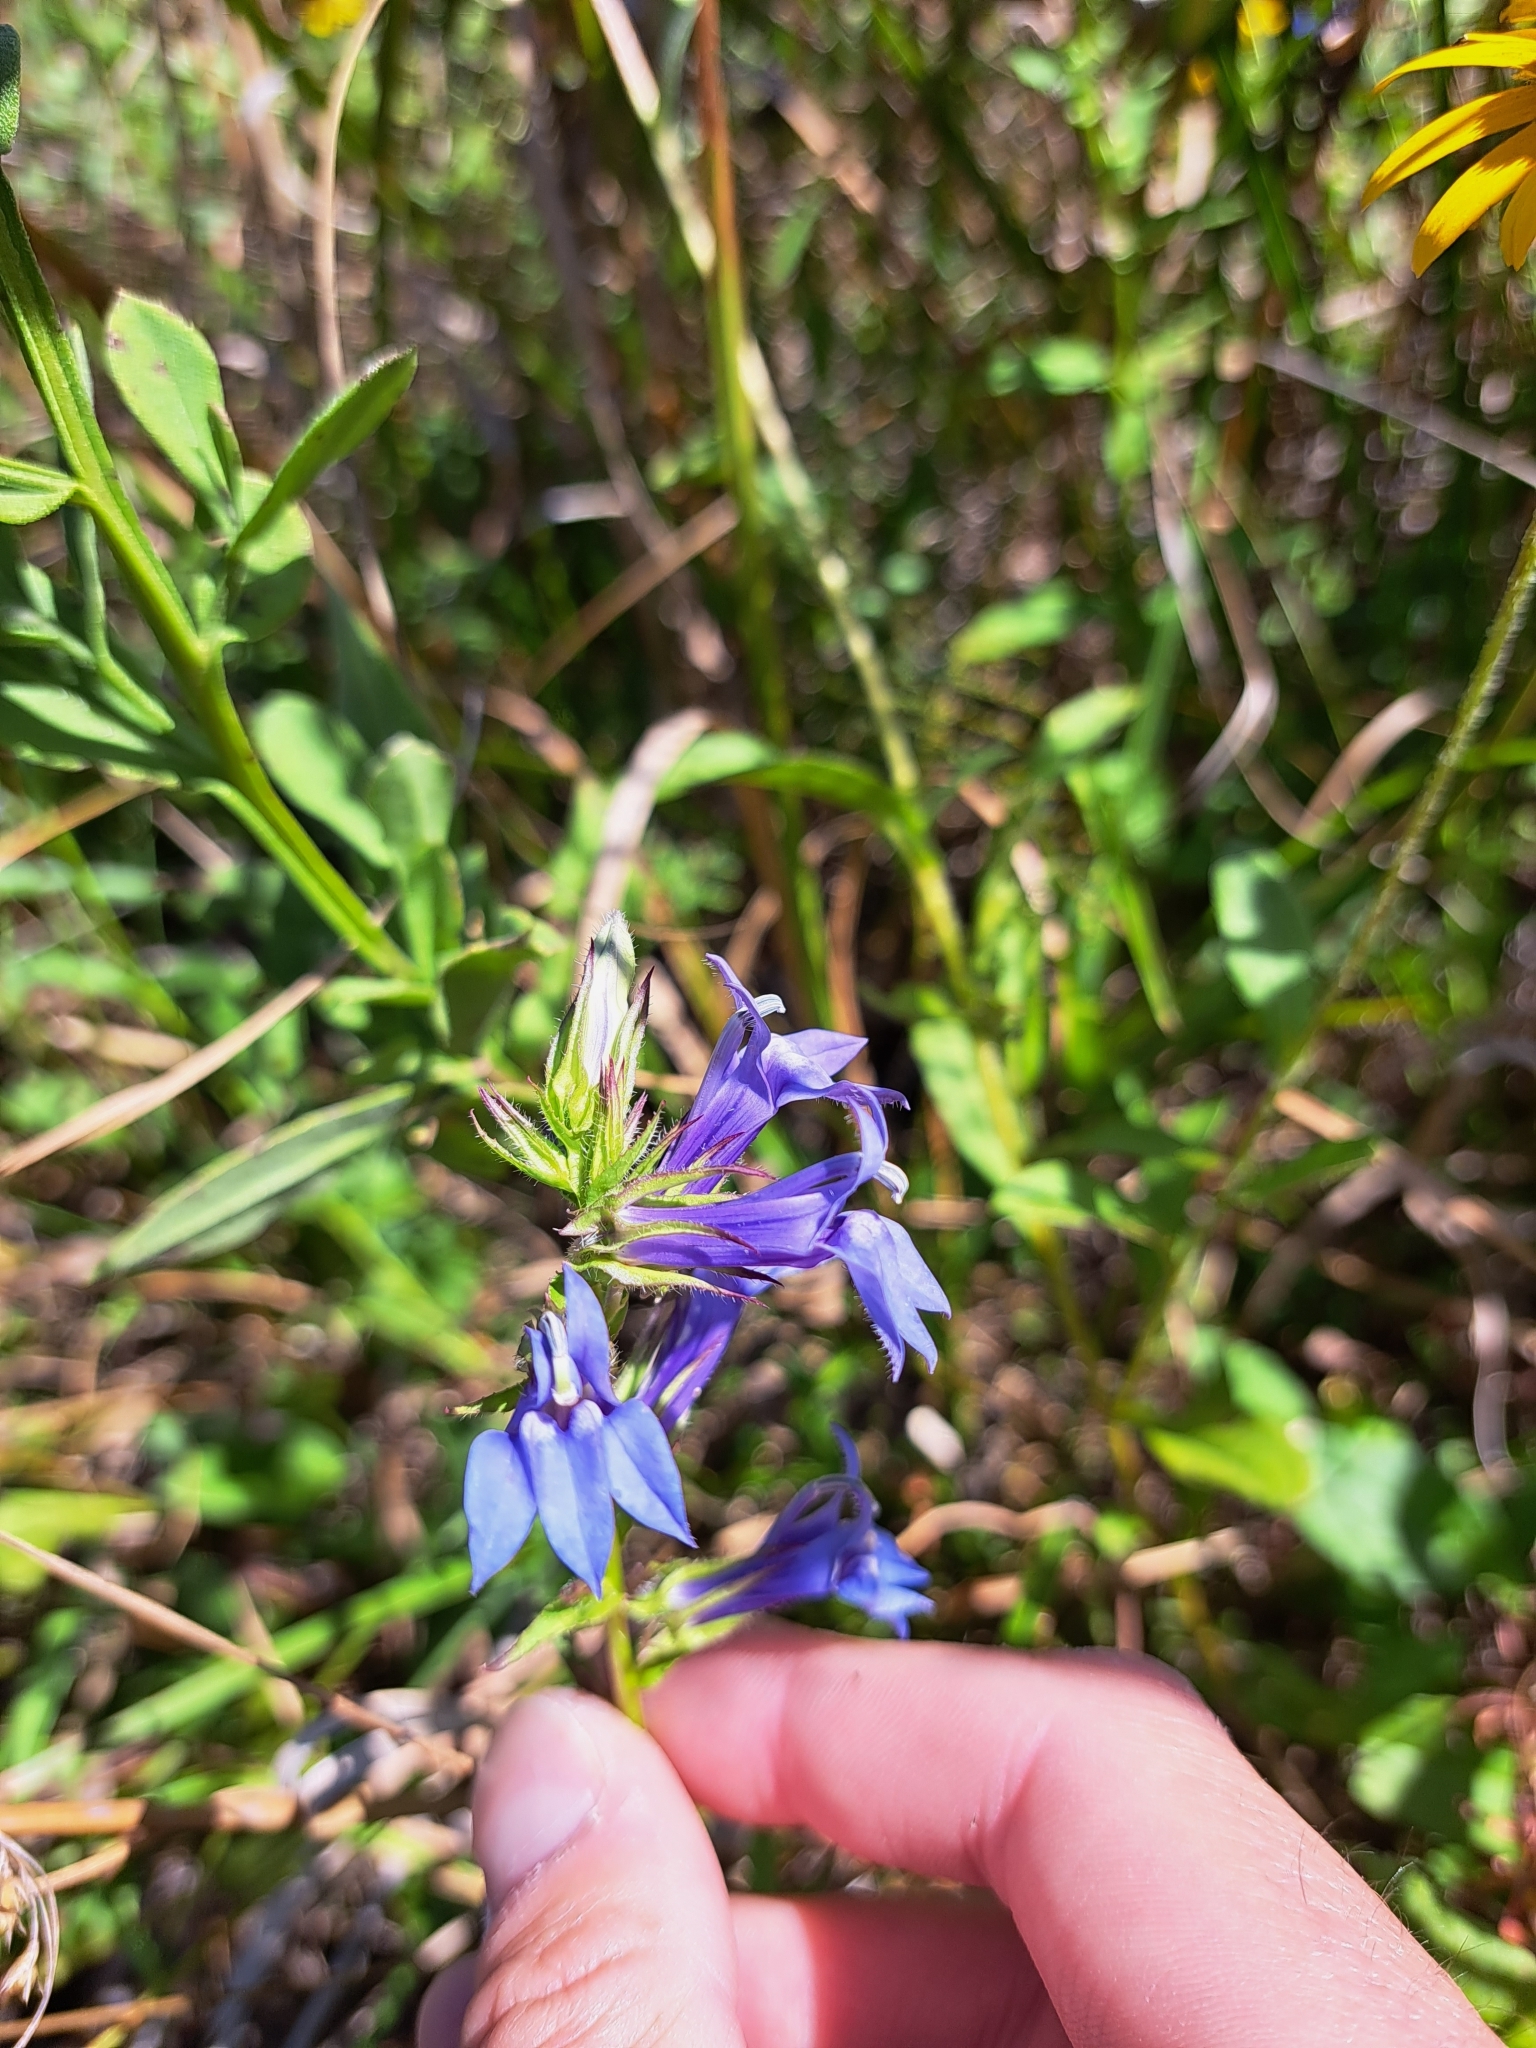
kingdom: Plantae
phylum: Tracheophyta
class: Magnoliopsida
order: Asterales
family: Campanulaceae
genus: Lobelia
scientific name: Lobelia siphilitica
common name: Great lobelia
